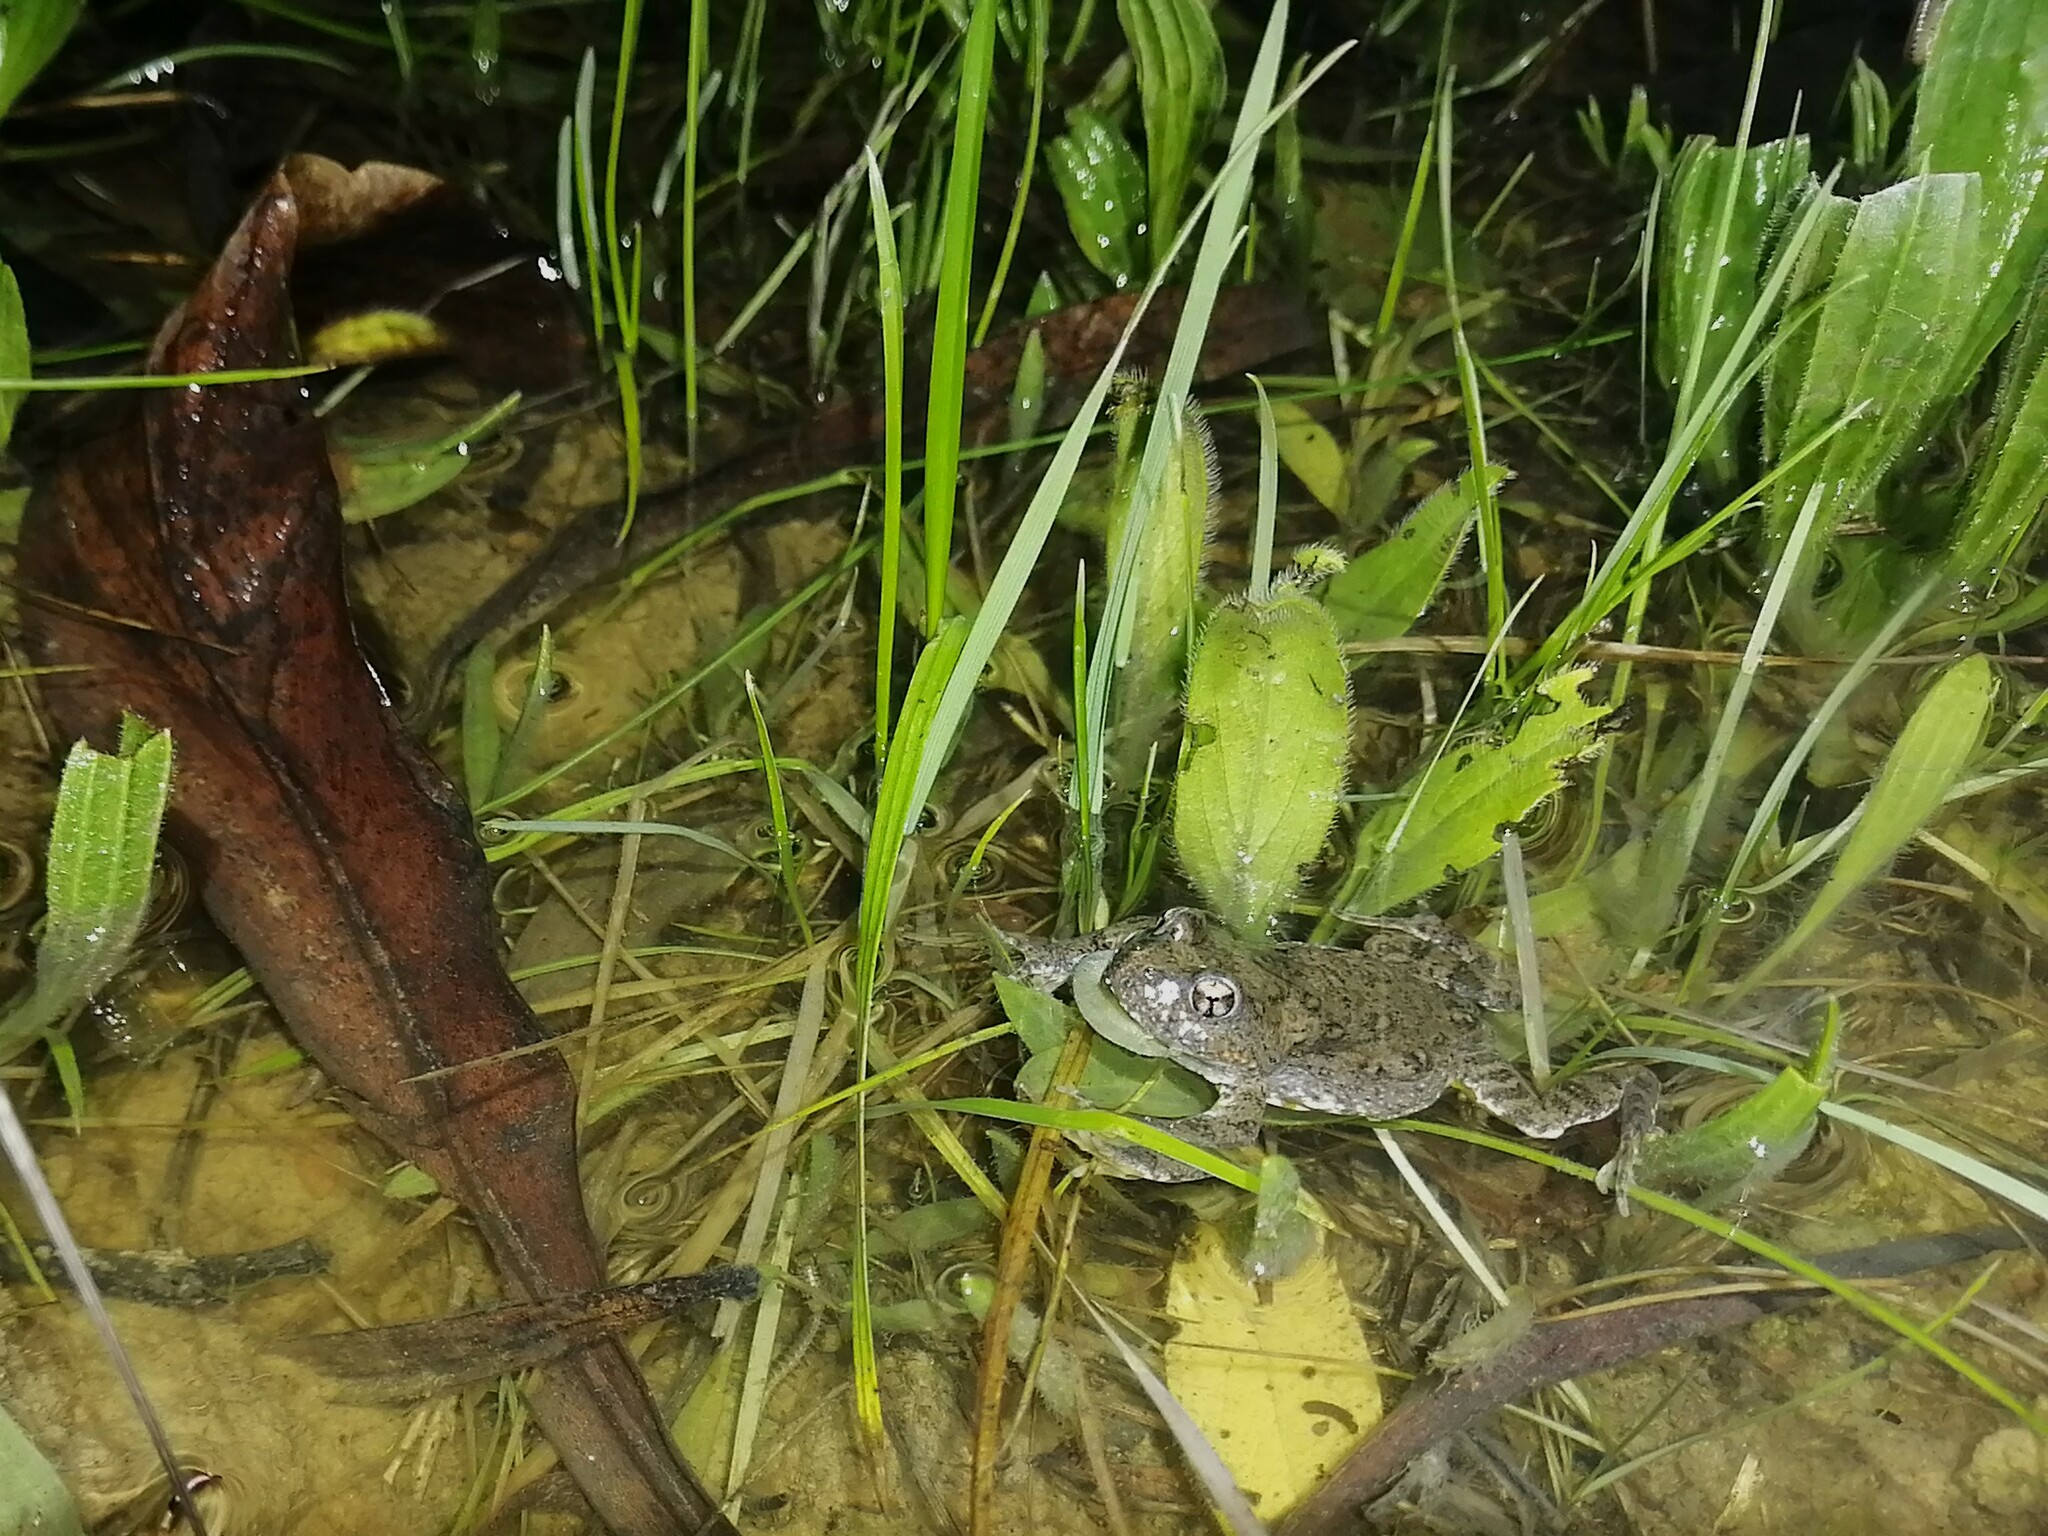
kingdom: Animalia
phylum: Chordata
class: Amphibia
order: Anura
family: Pyxicephalidae
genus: Cacosternum
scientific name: Cacosternum capense
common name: Cape dainty frog
